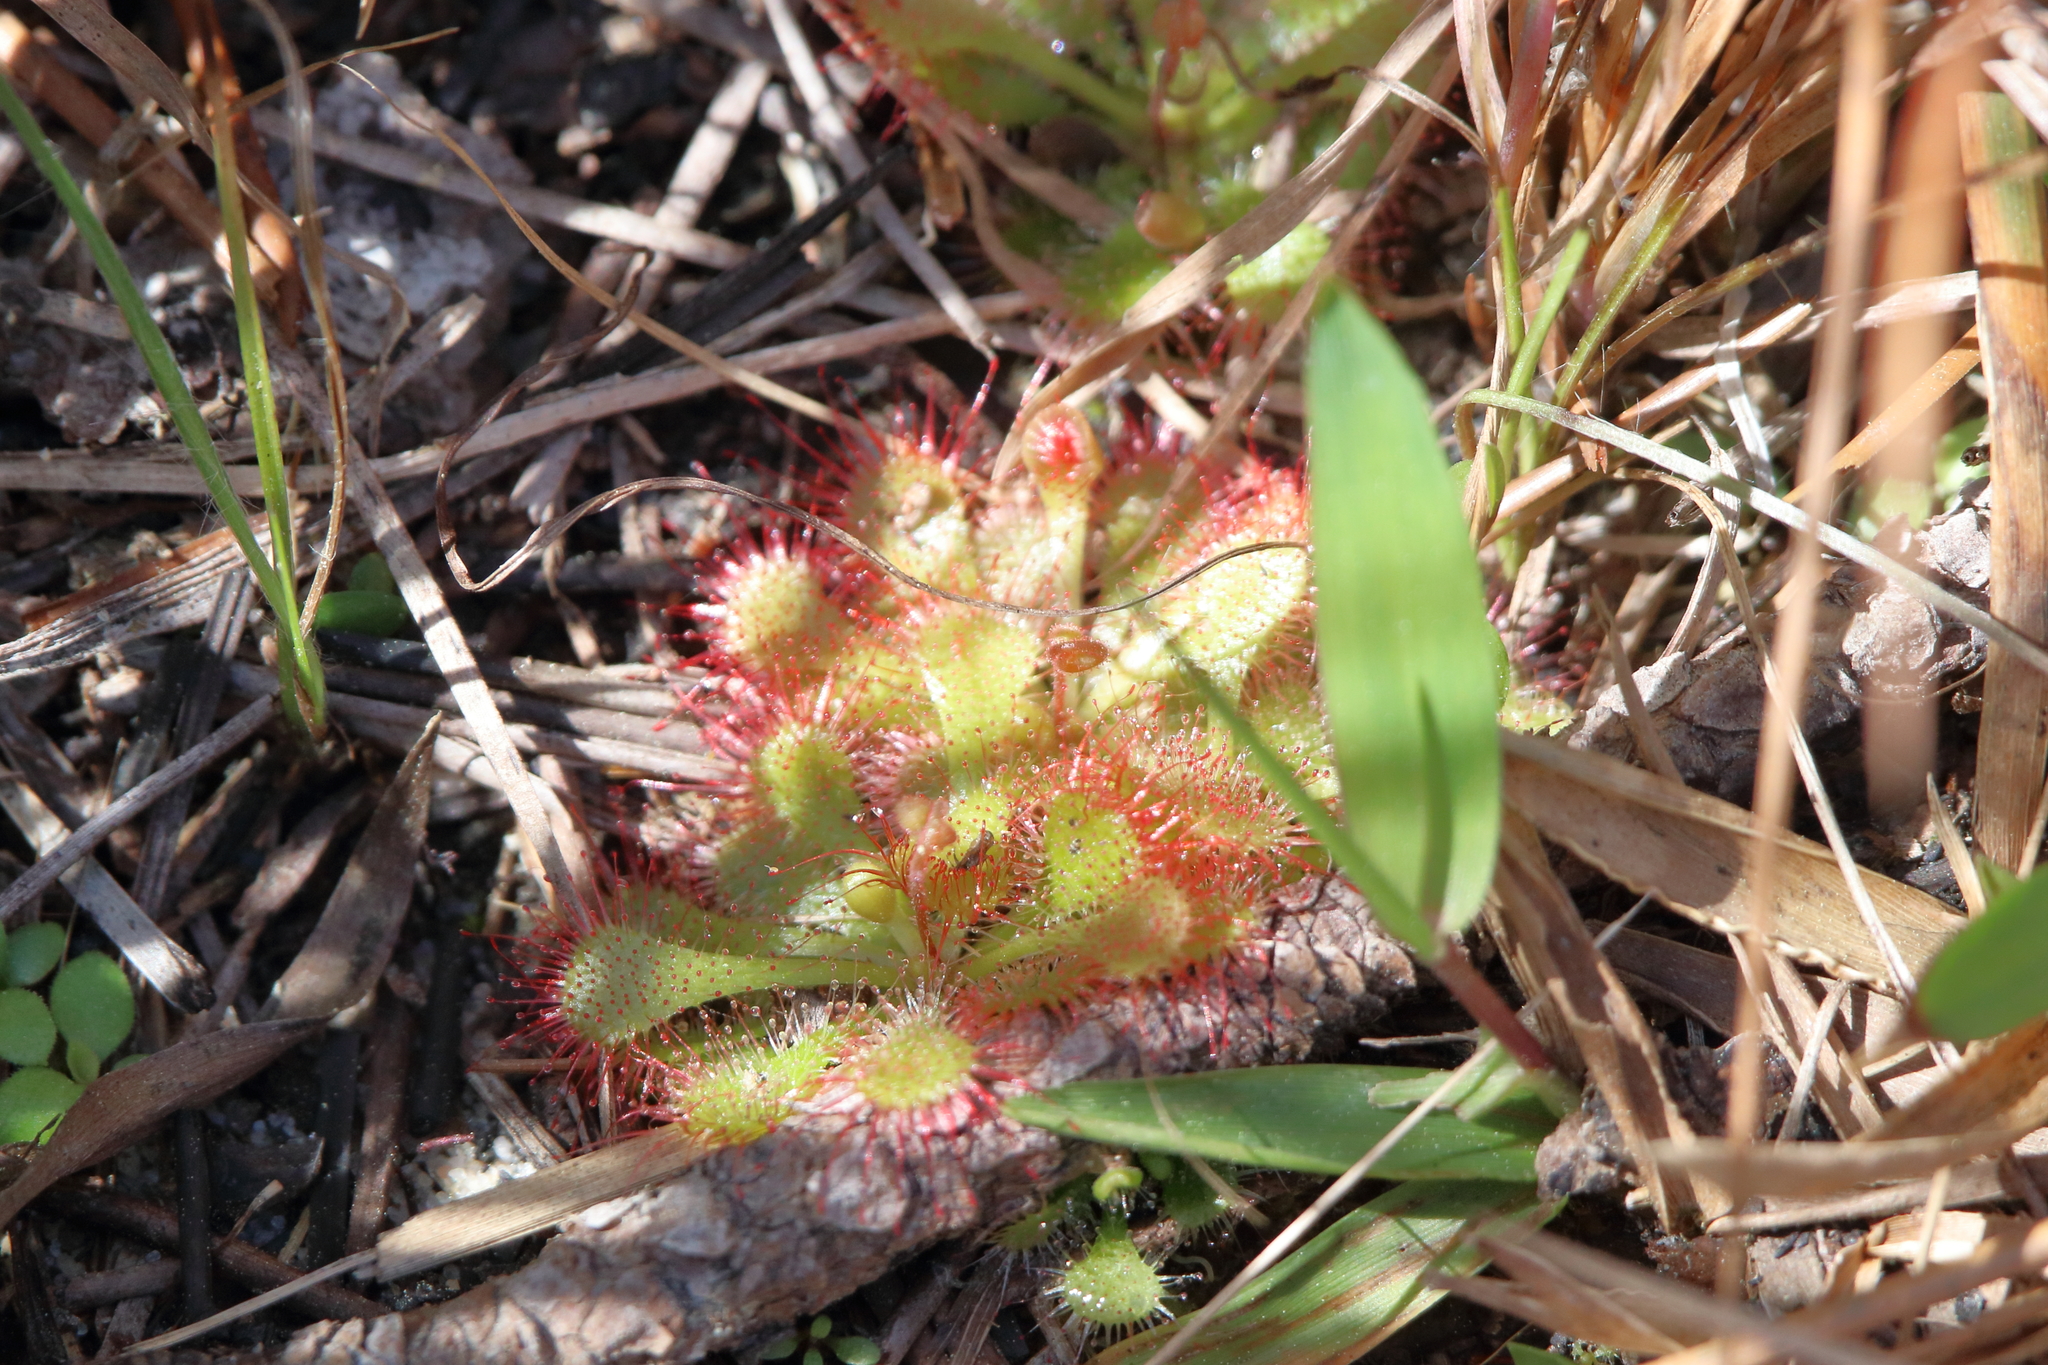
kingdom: Plantae
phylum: Tracheophyta
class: Magnoliopsida
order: Caryophyllales
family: Droseraceae
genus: Drosera
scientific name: Drosera brevifolia
